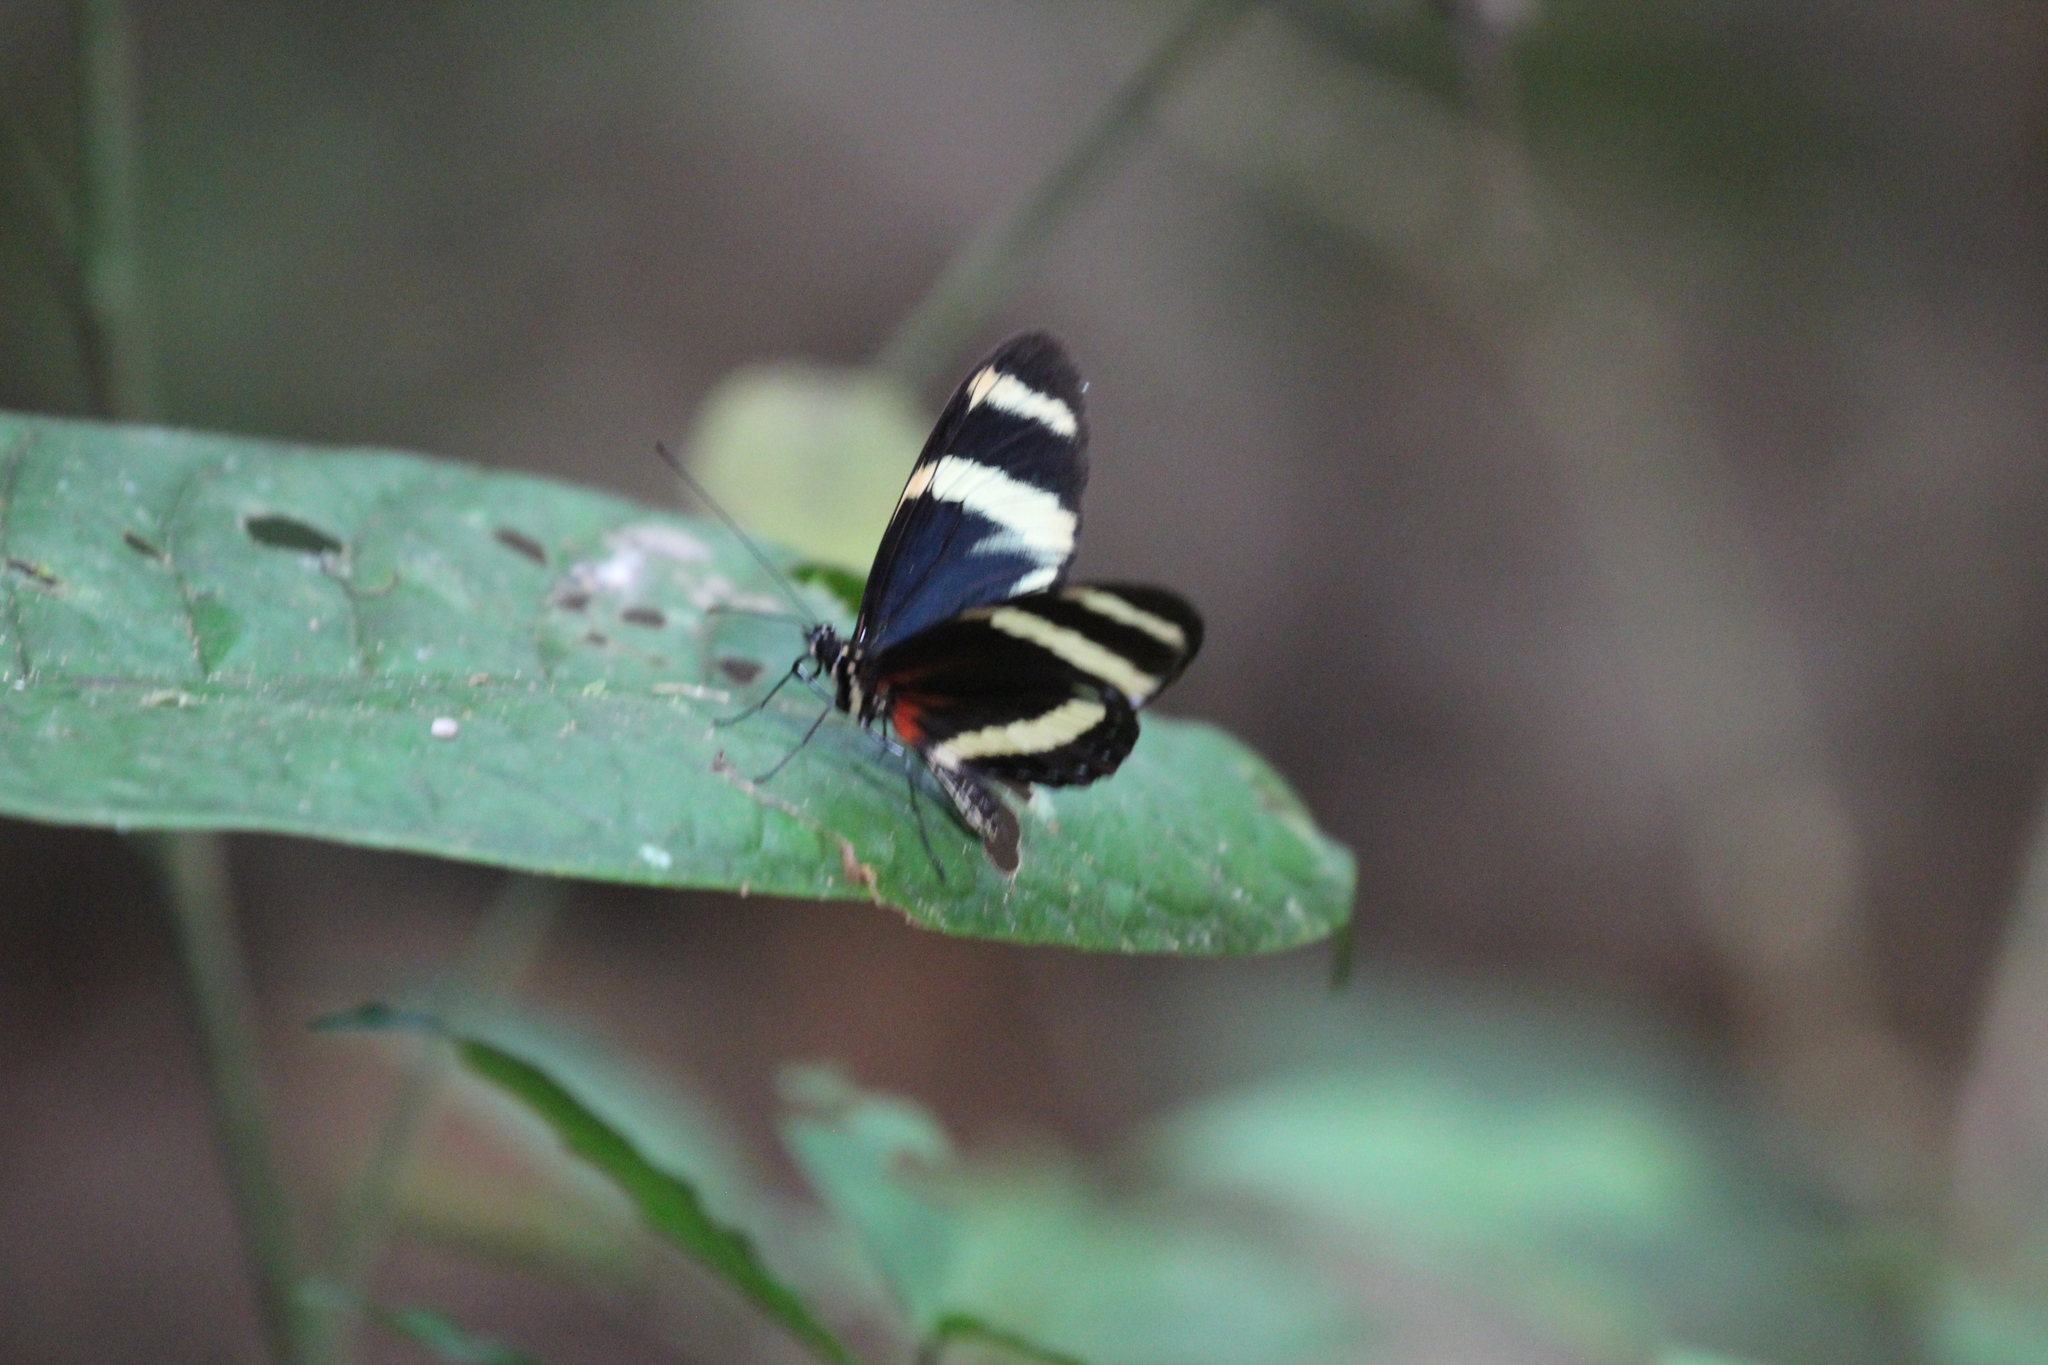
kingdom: Animalia
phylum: Arthropoda
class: Insecta
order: Lepidoptera
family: Nymphalidae
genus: Heliconius
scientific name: Heliconius pachinus
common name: Pachinus longwing
